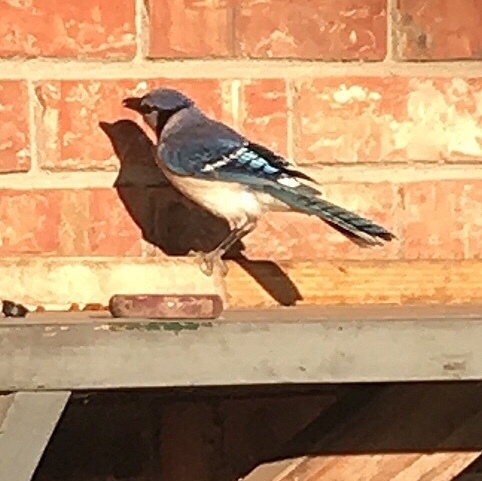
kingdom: Animalia
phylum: Chordata
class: Aves
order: Passeriformes
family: Corvidae
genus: Cyanocitta
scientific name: Cyanocitta cristata
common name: Blue jay
